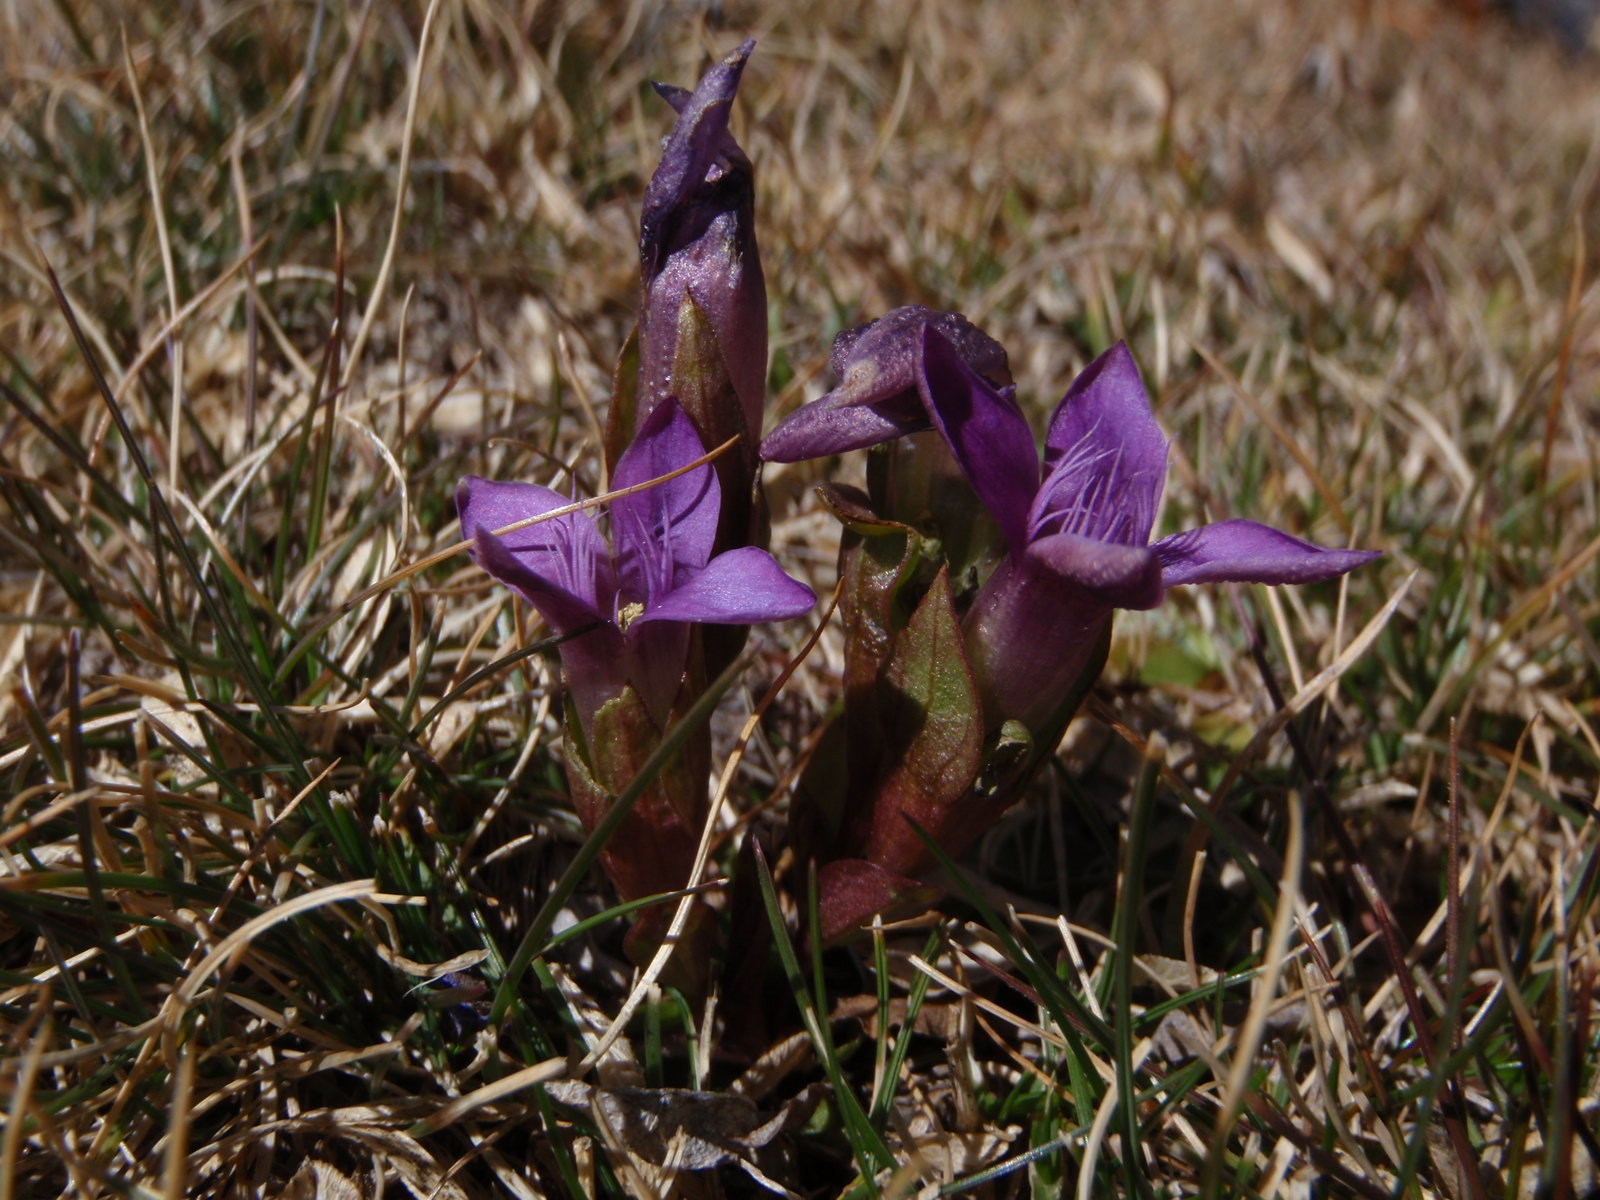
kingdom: Plantae
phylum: Tracheophyta
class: Magnoliopsida
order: Gentianales
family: Gentianaceae
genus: Gentianella
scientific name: Gentianella campestris
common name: Field gentian
